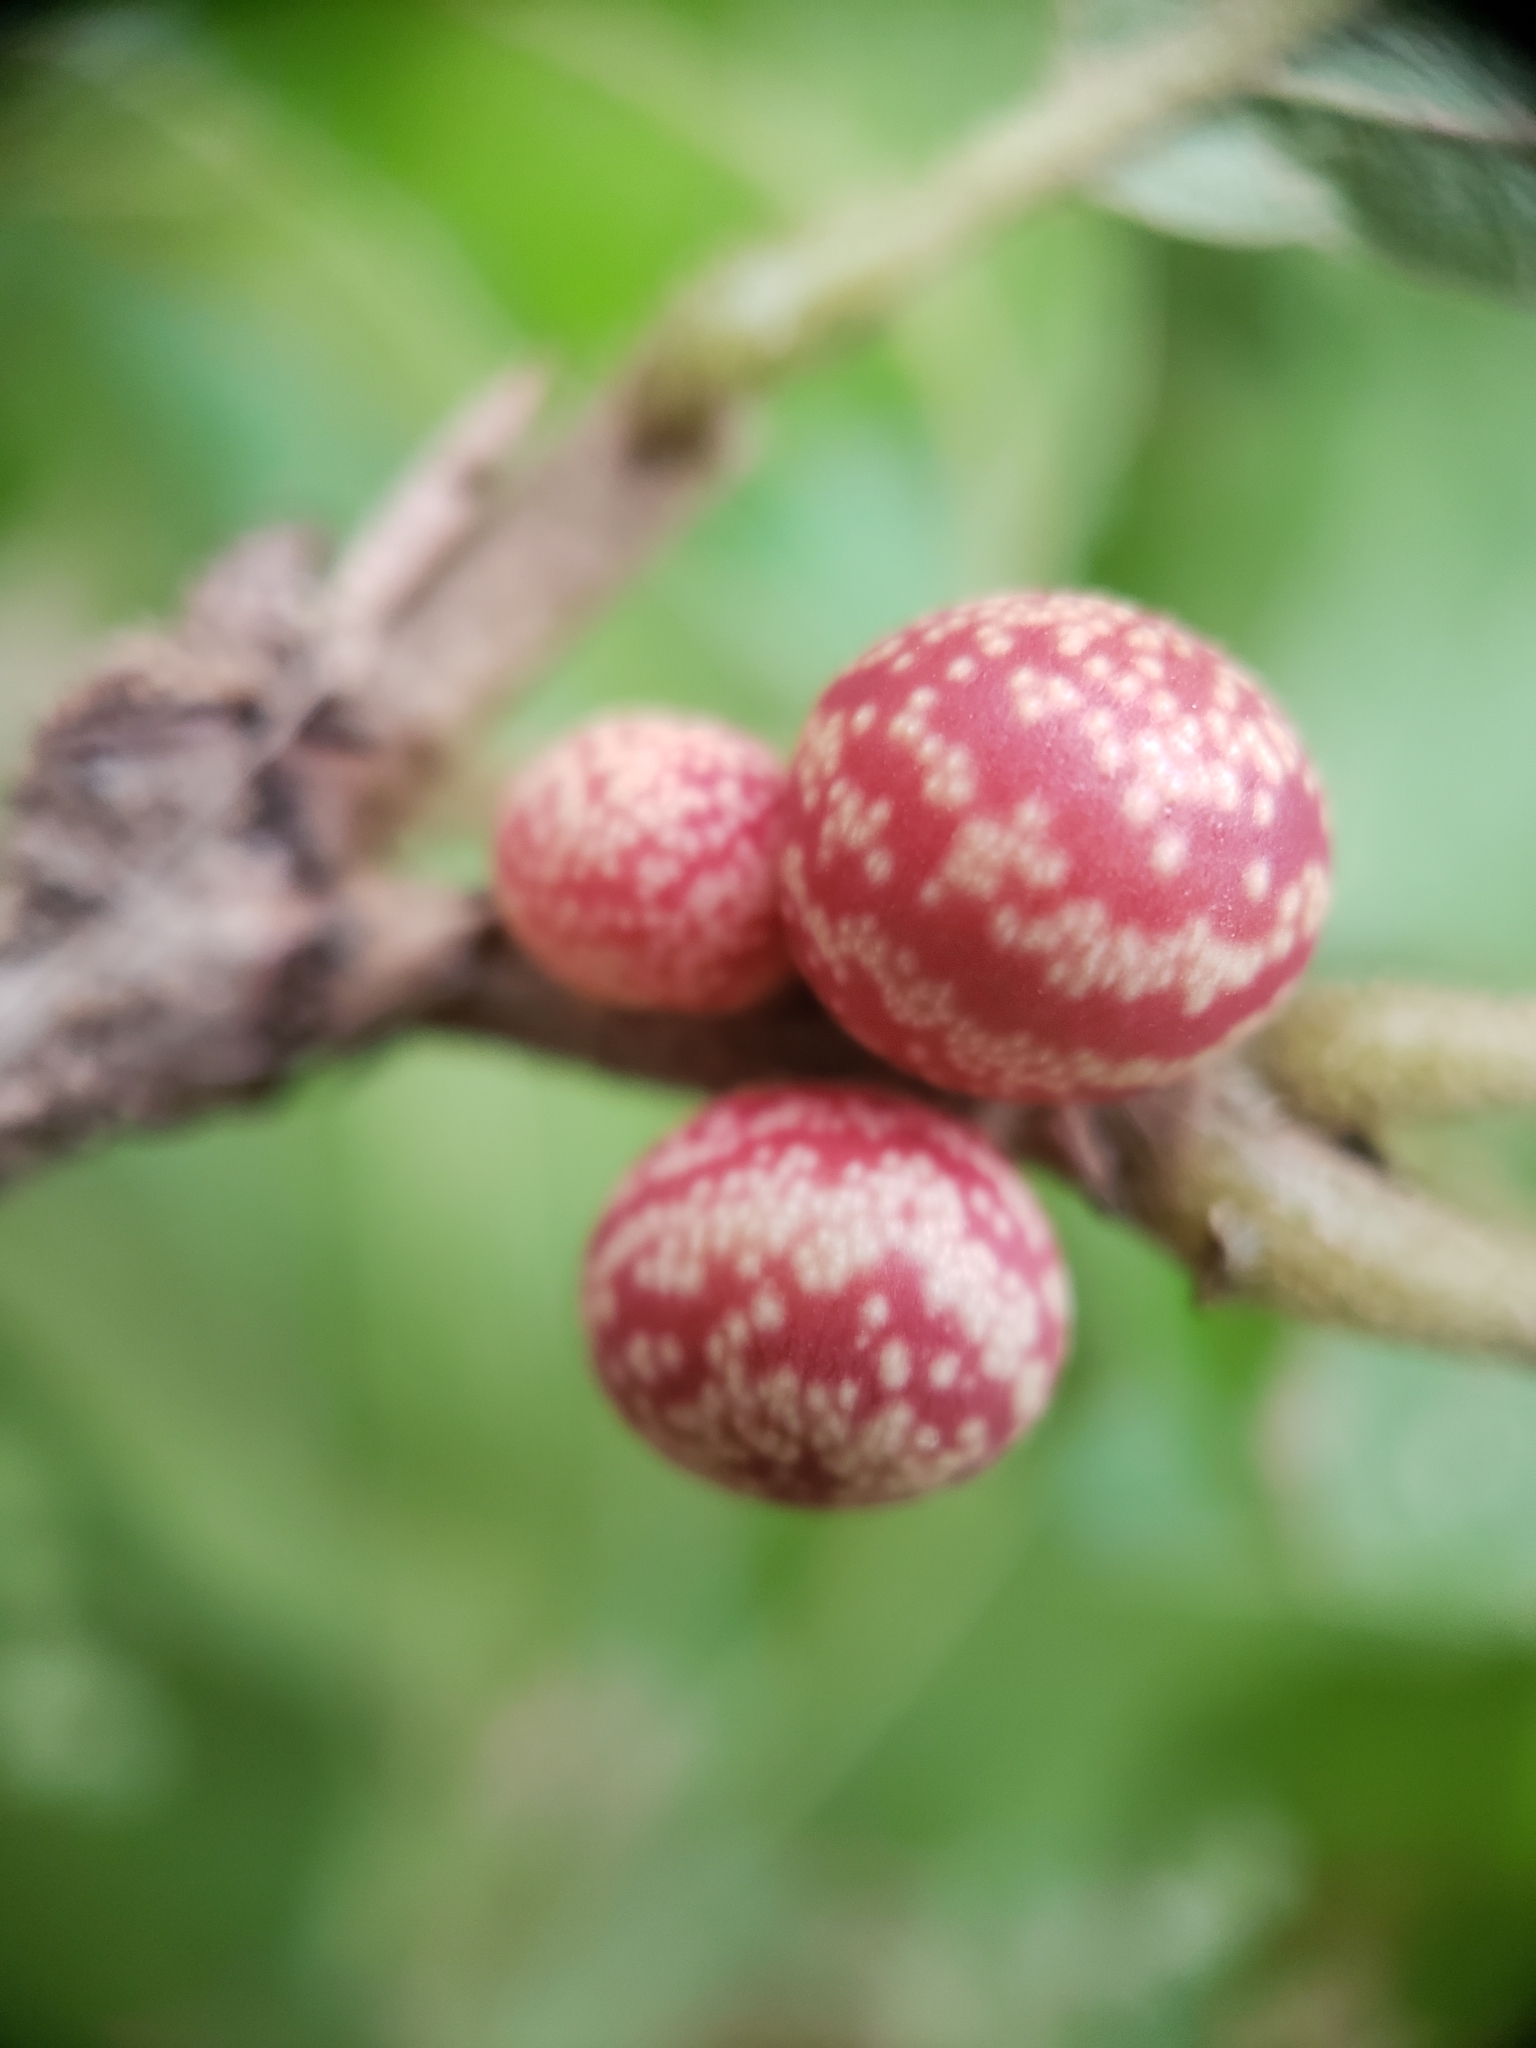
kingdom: Animalia
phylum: Arthropoda
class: Insecta
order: Hymenoptera
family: Cynipidae
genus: Kokkocynips
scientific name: Kokkocynips imbricariae
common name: Banded bullet gall wasp
